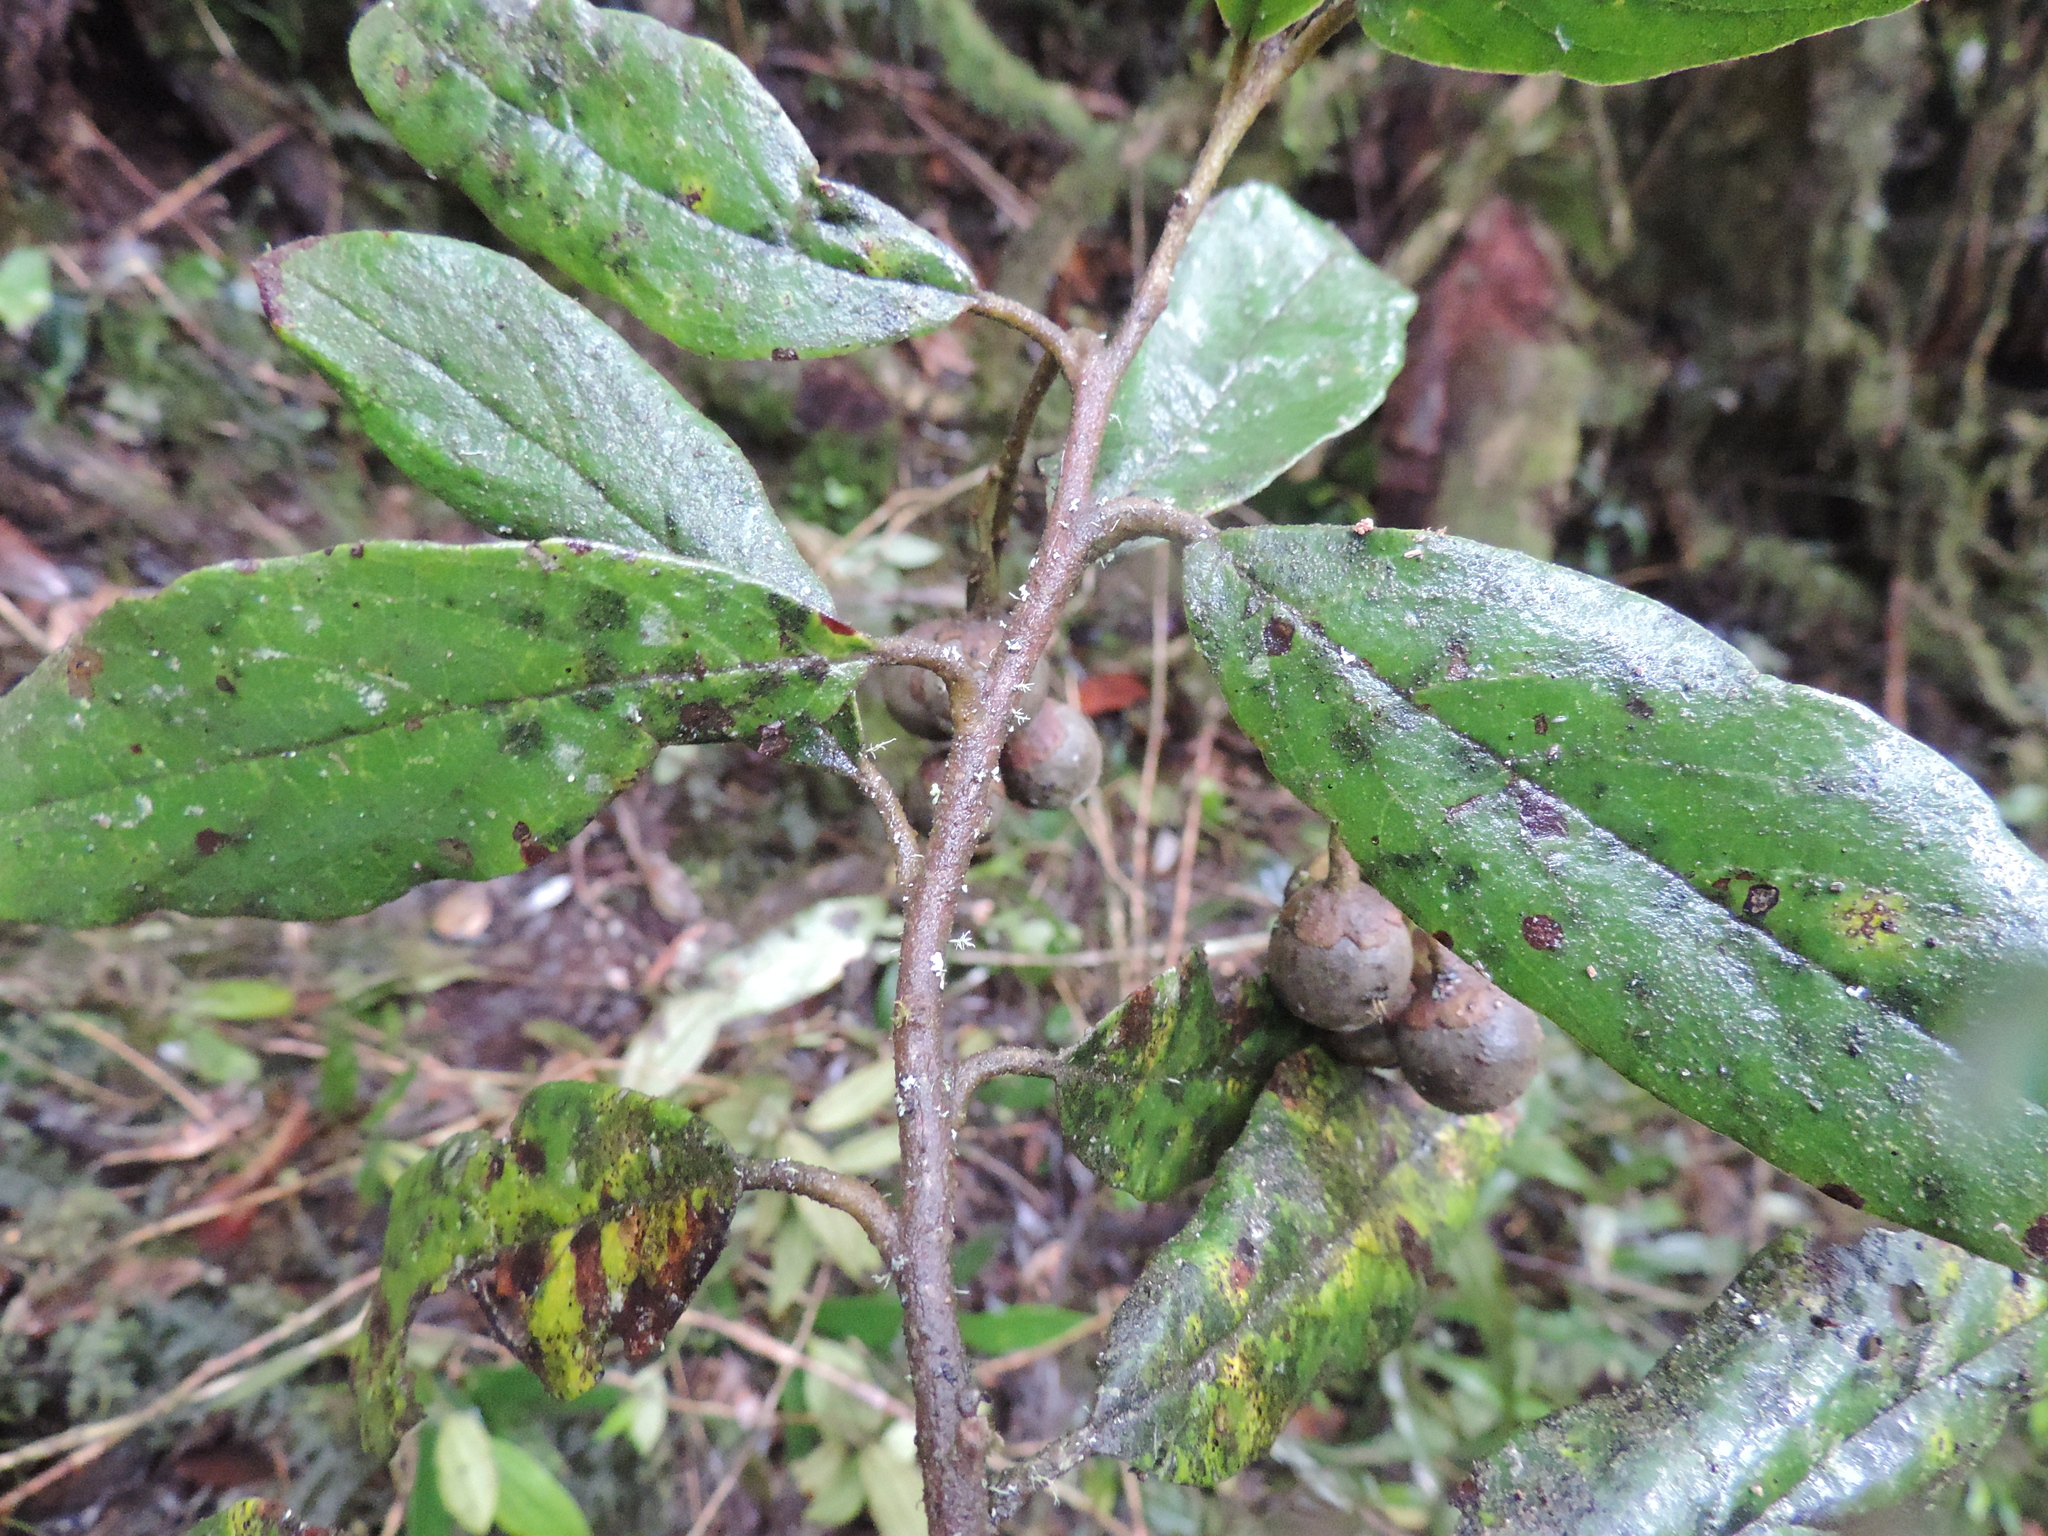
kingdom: Plantae
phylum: Tracheophyta
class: Magnoliopsida
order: Ericales
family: Styracaceae
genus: Styrax
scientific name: Styrax trichocalyx
